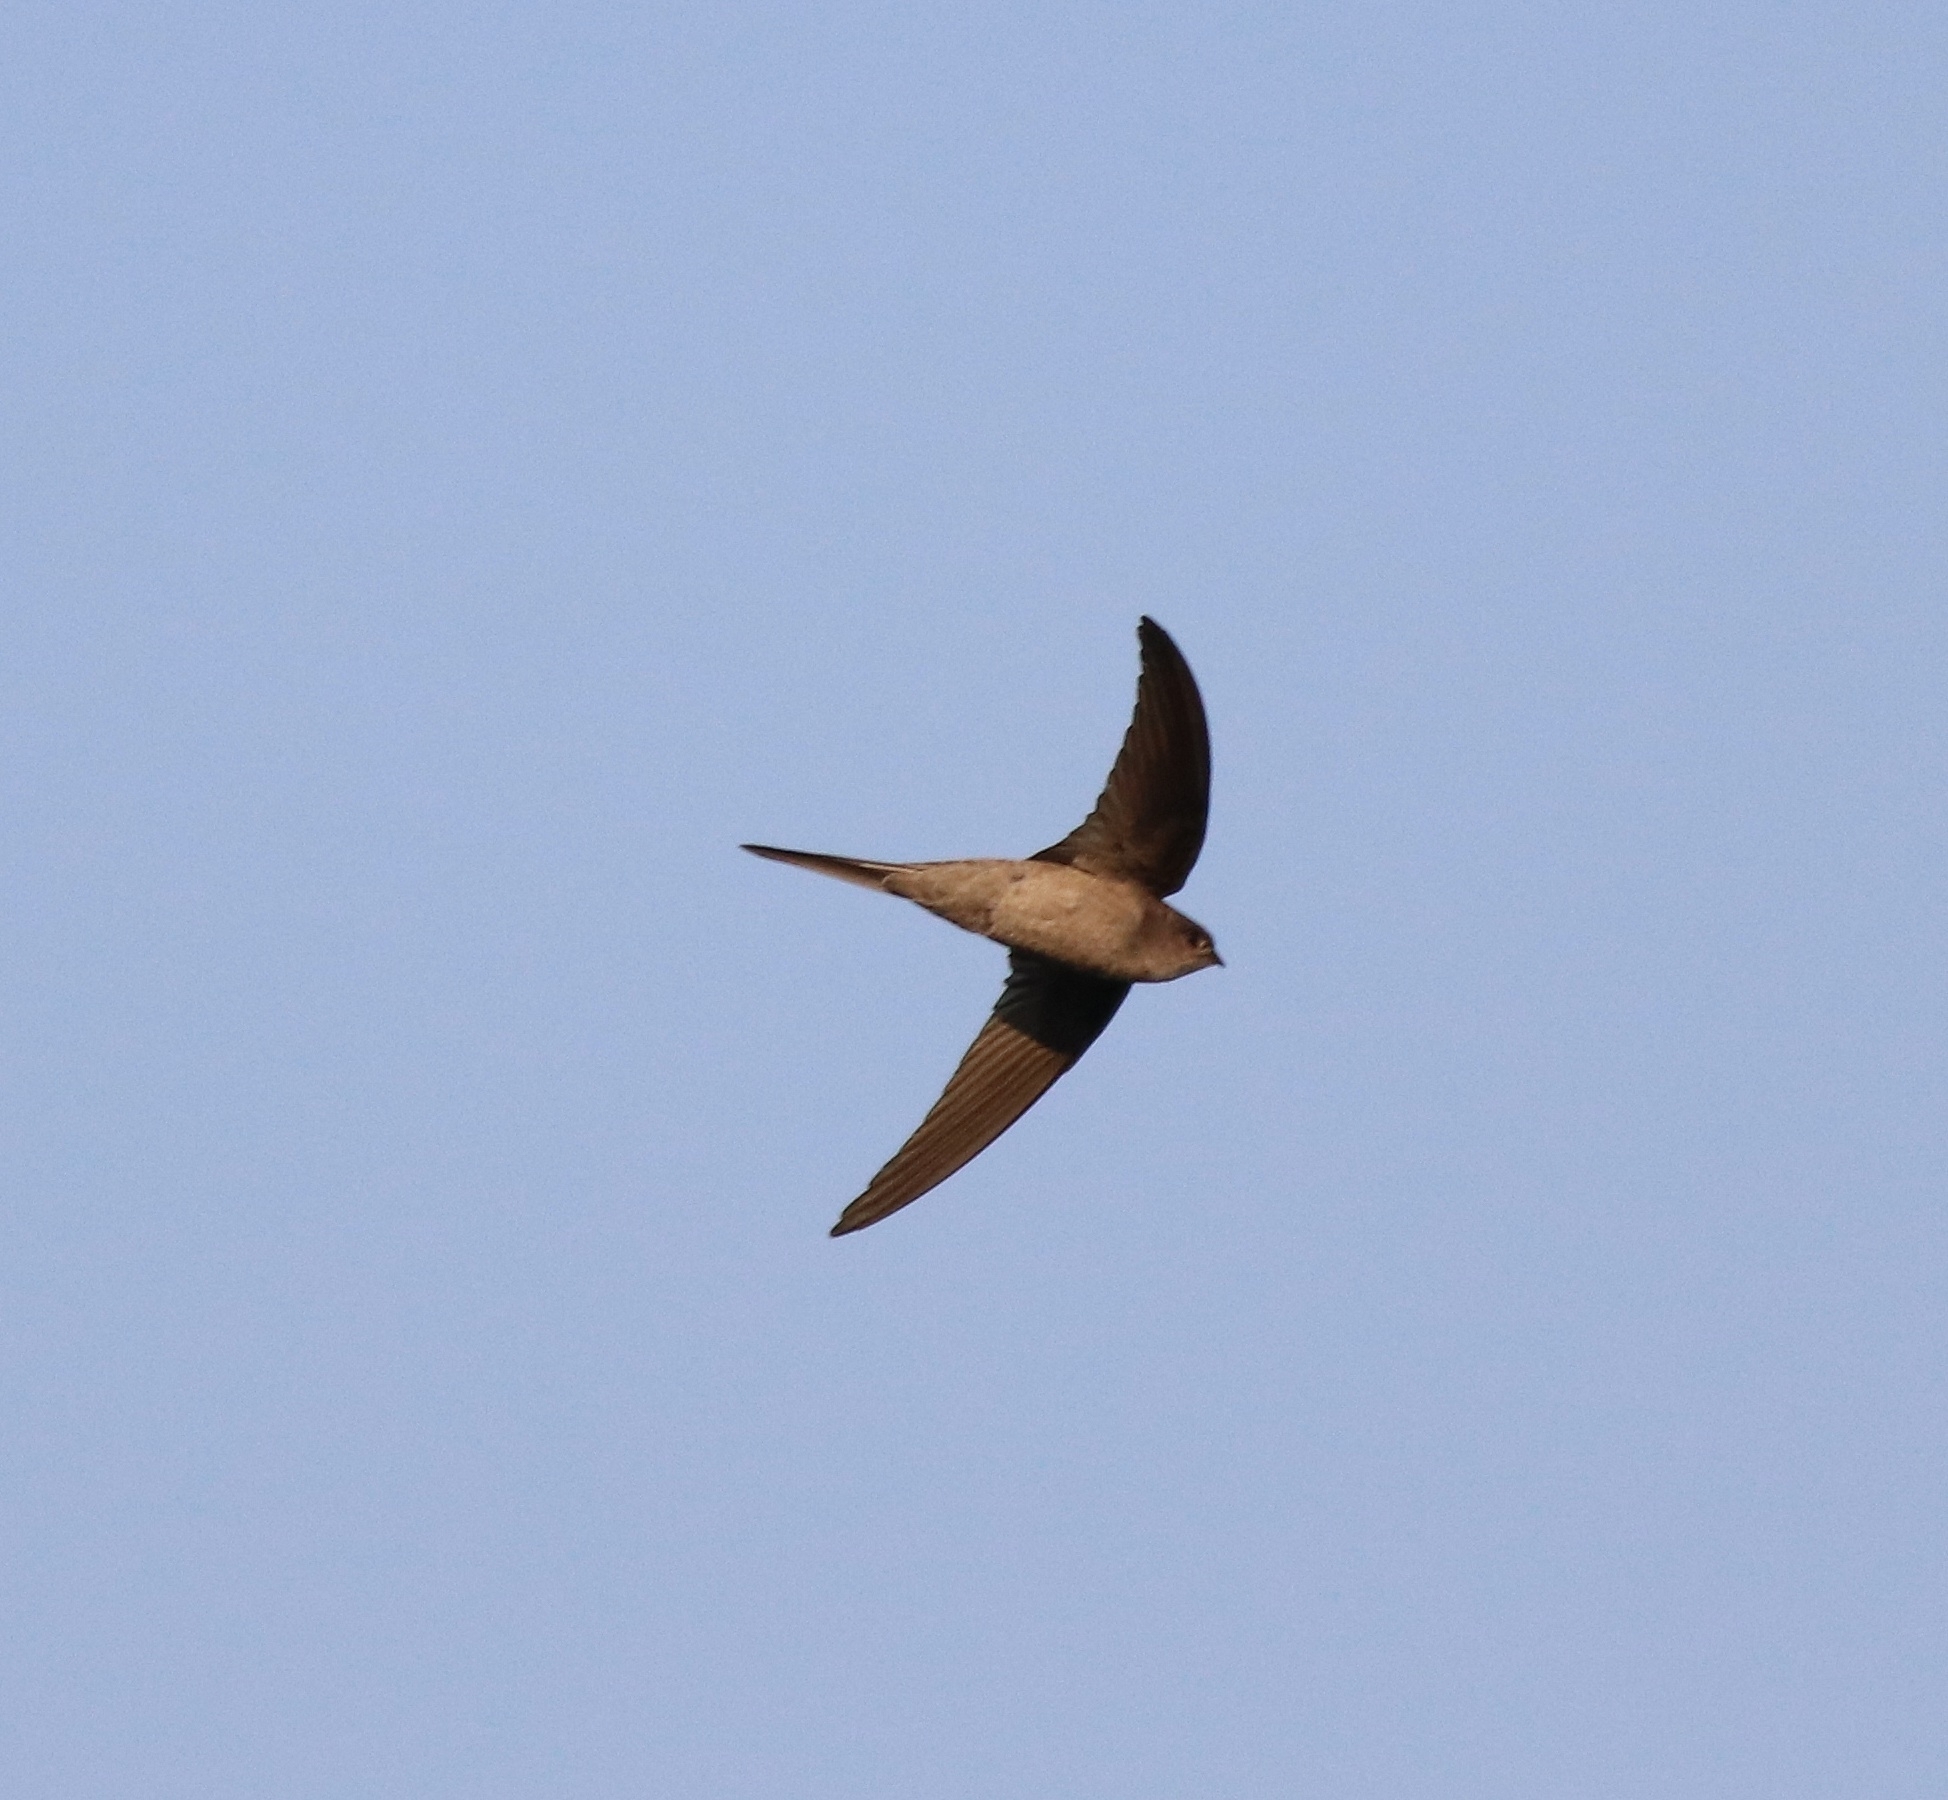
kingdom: Animalia
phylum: Chordata
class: Aves
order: Apodiformes
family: Apodidae
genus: Cypsiurus
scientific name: Cypsiurus balasiensis
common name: Asian palm swift
